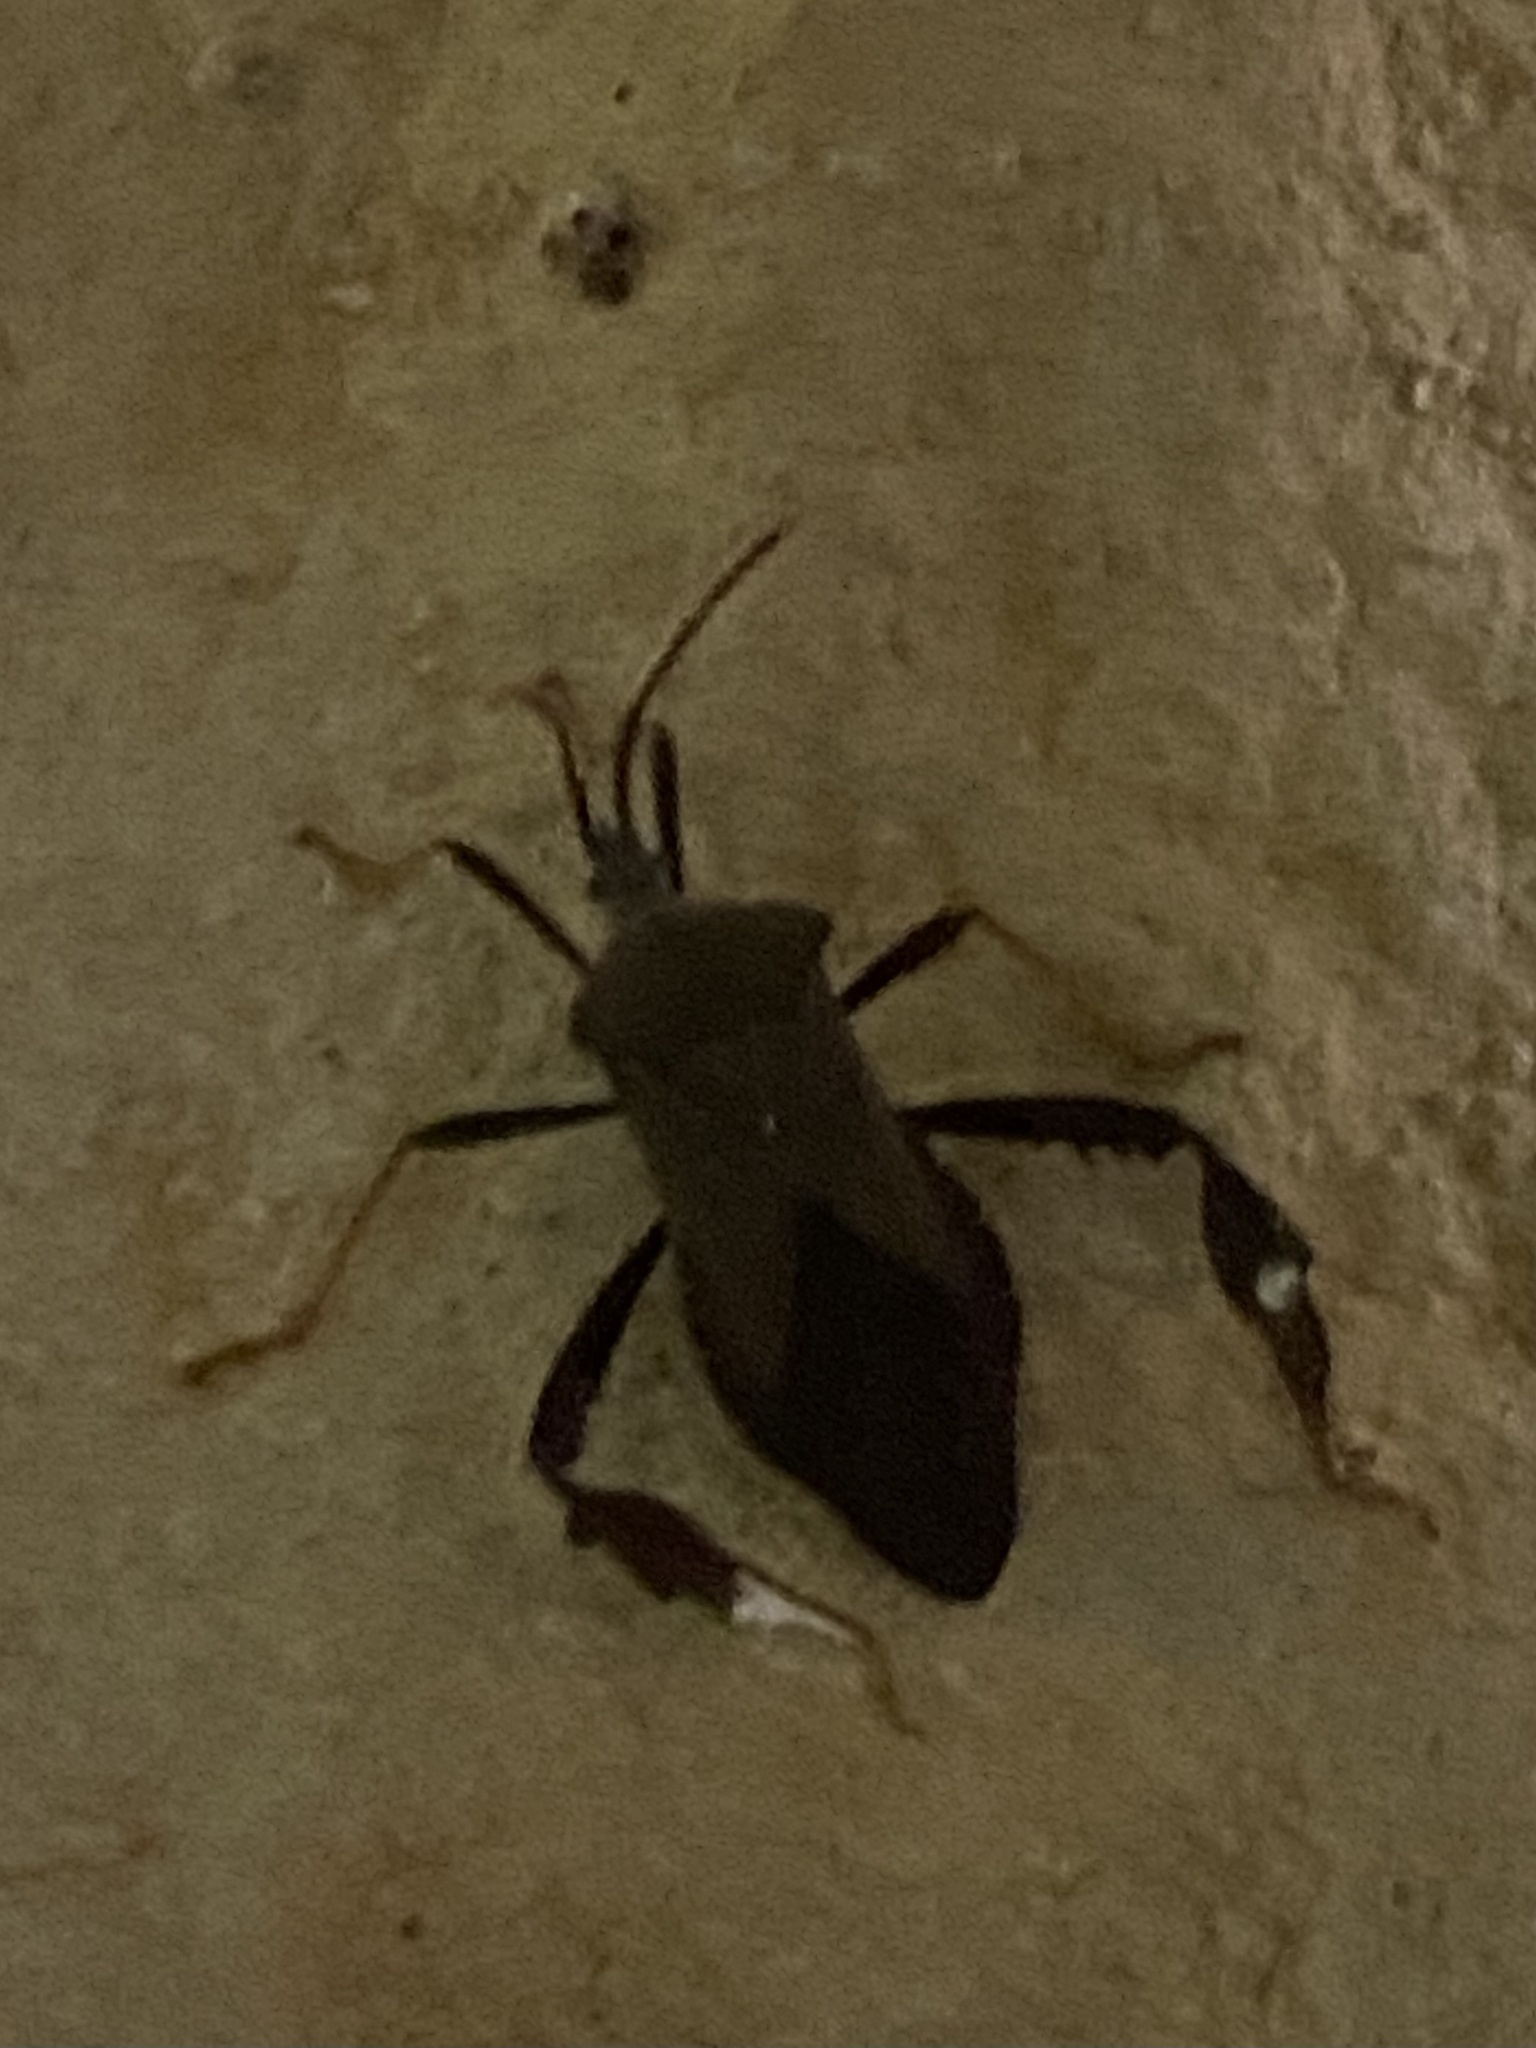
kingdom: Animalia
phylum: Arthropoda
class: Insecta
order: Hemiptera
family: Coreidae
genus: Acanthocephala
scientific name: Acanthocephala terminalis
